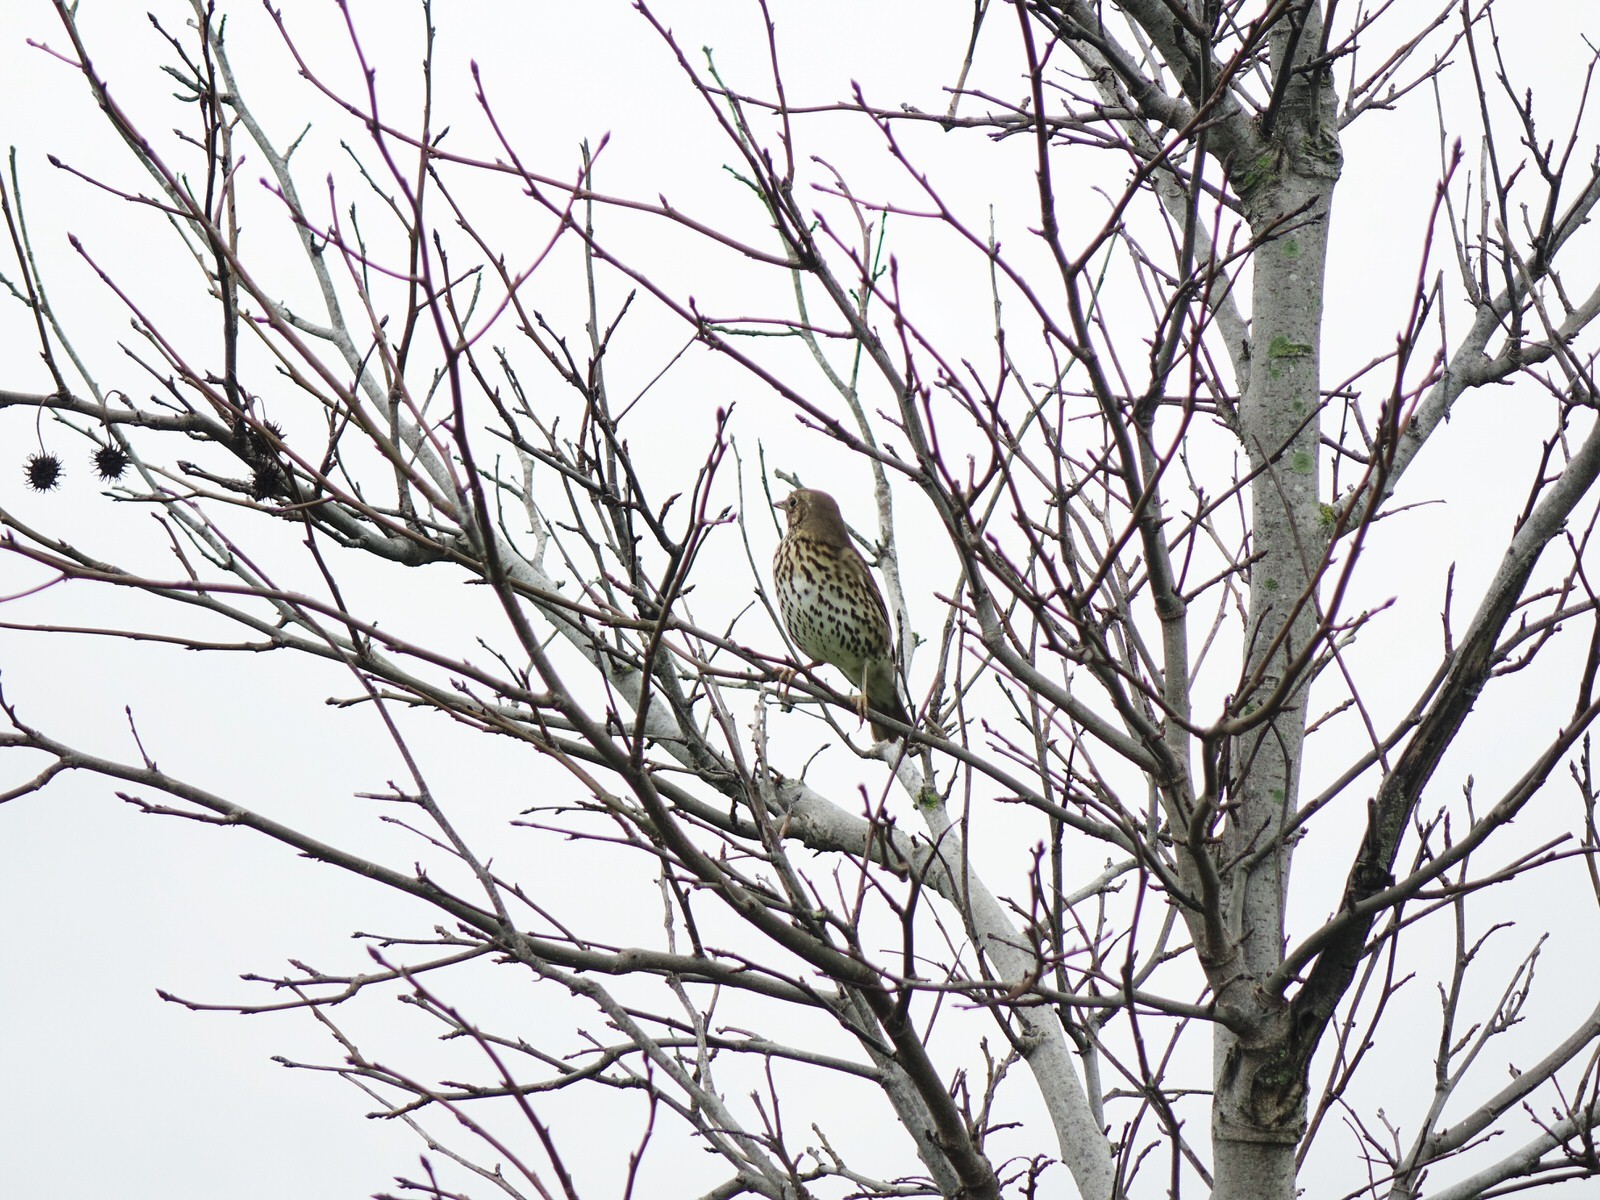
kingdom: Animalia
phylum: Chordata
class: Aves
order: Passeriformes
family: Turdidae
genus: Turdus
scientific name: Turdus philomelos
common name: Song thrush
